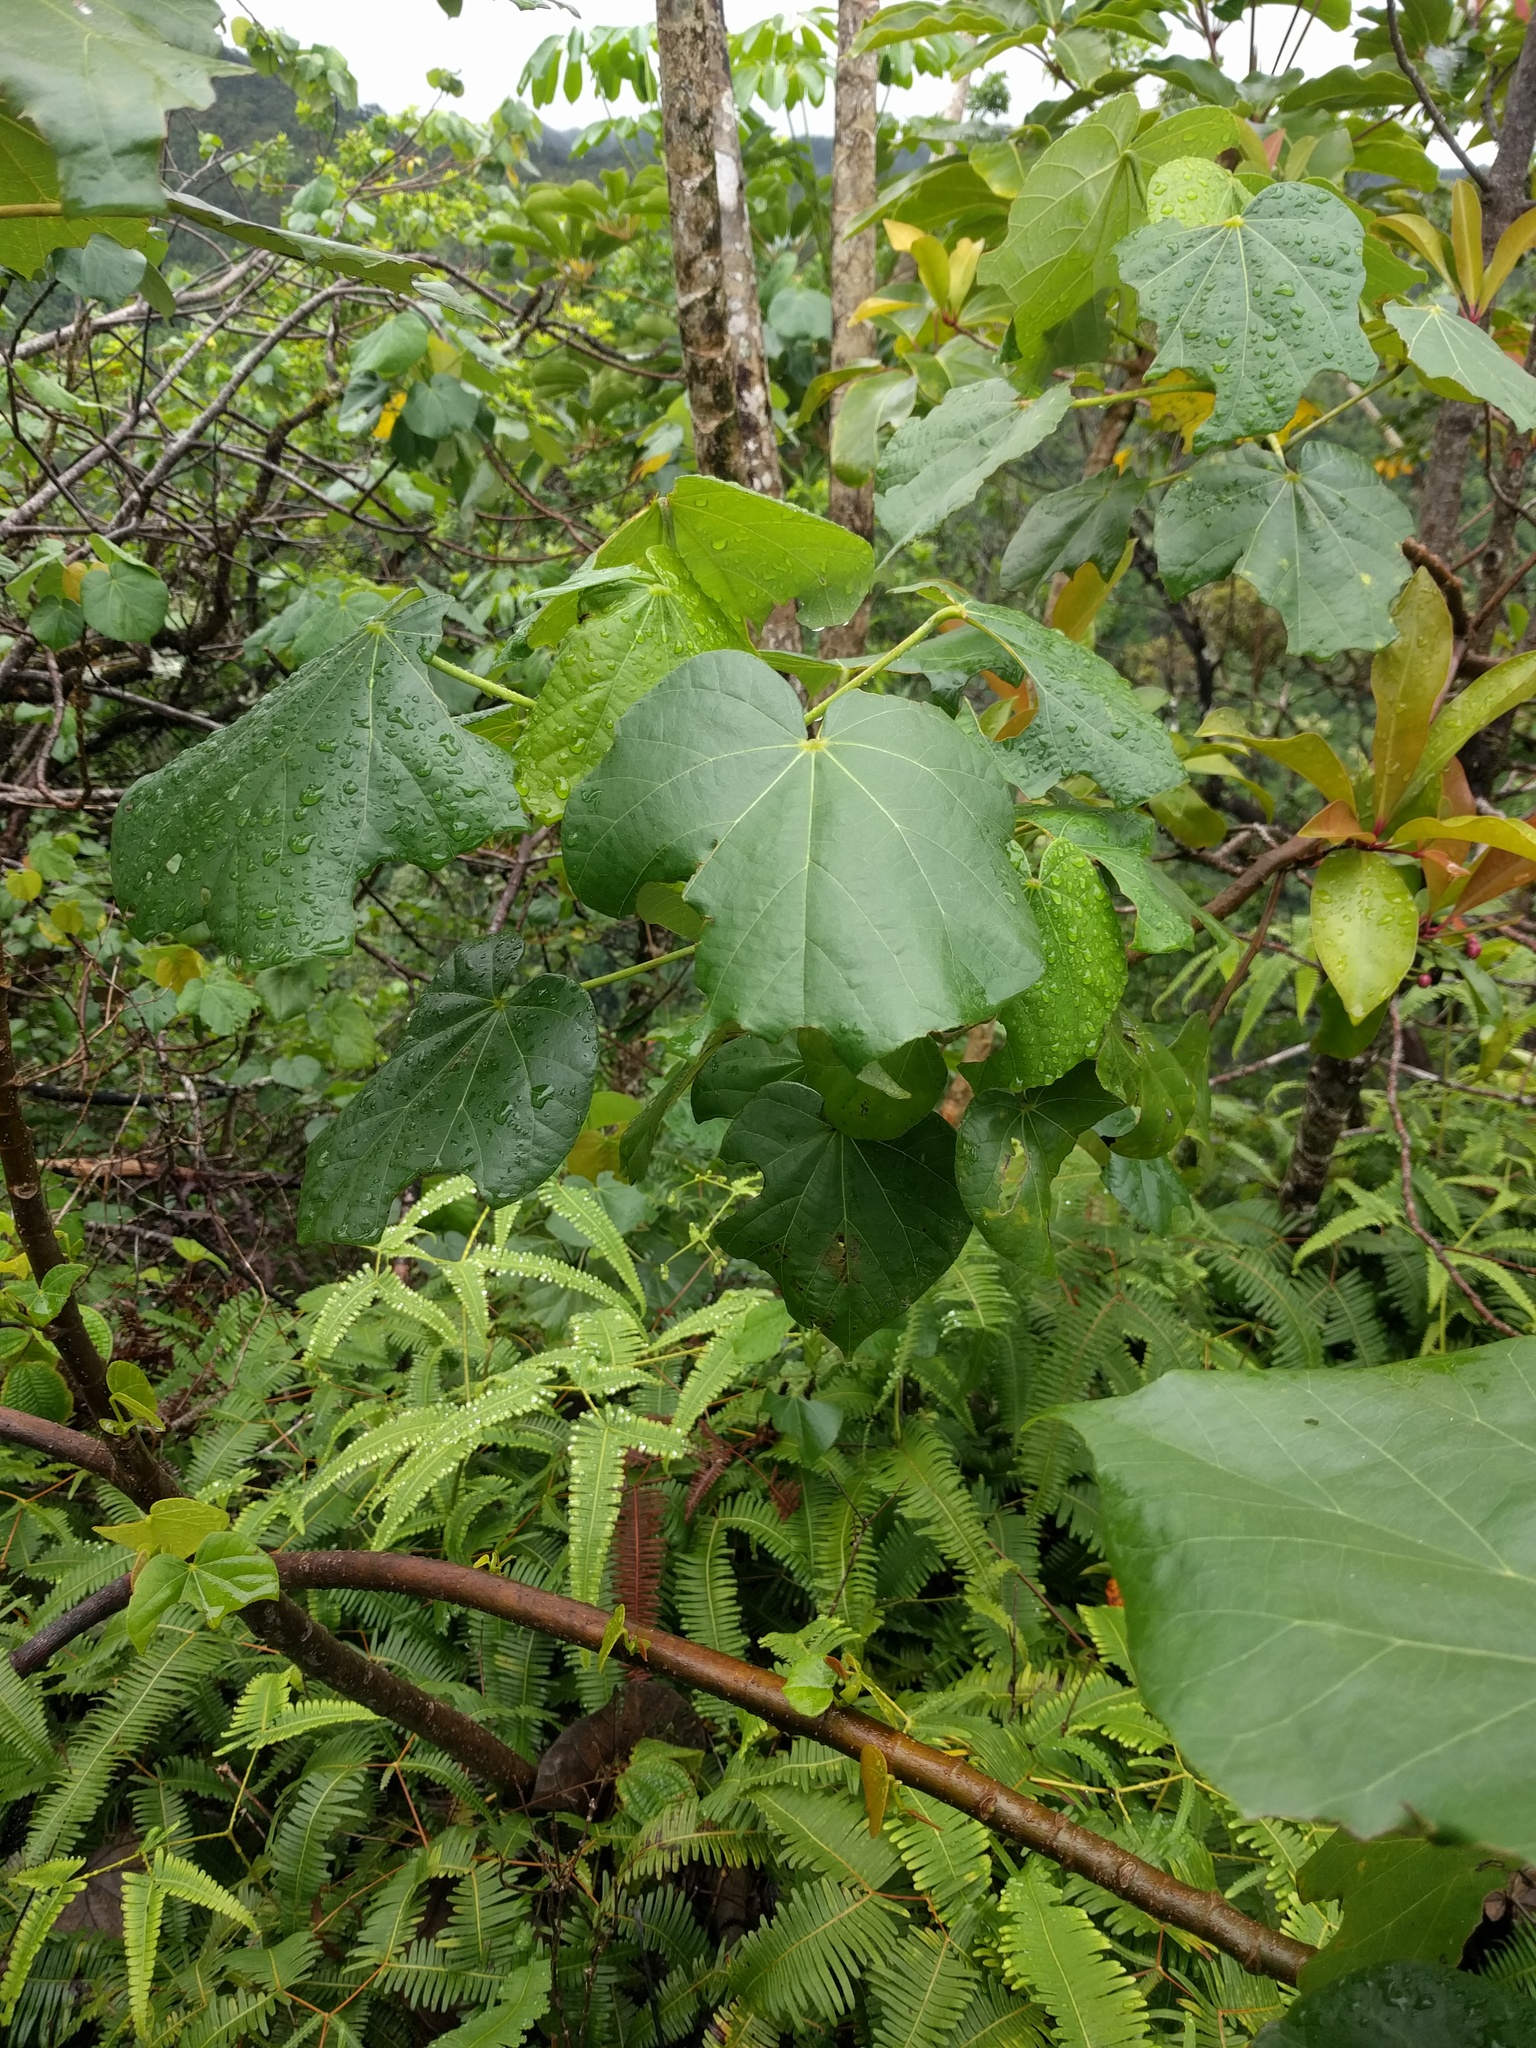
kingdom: Plantae
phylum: Tracheophyta
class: Magnoliopsida
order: Malvales
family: Malvaceae
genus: Talipariti
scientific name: Talipariti tiliaceum
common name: Sea hibiscus
